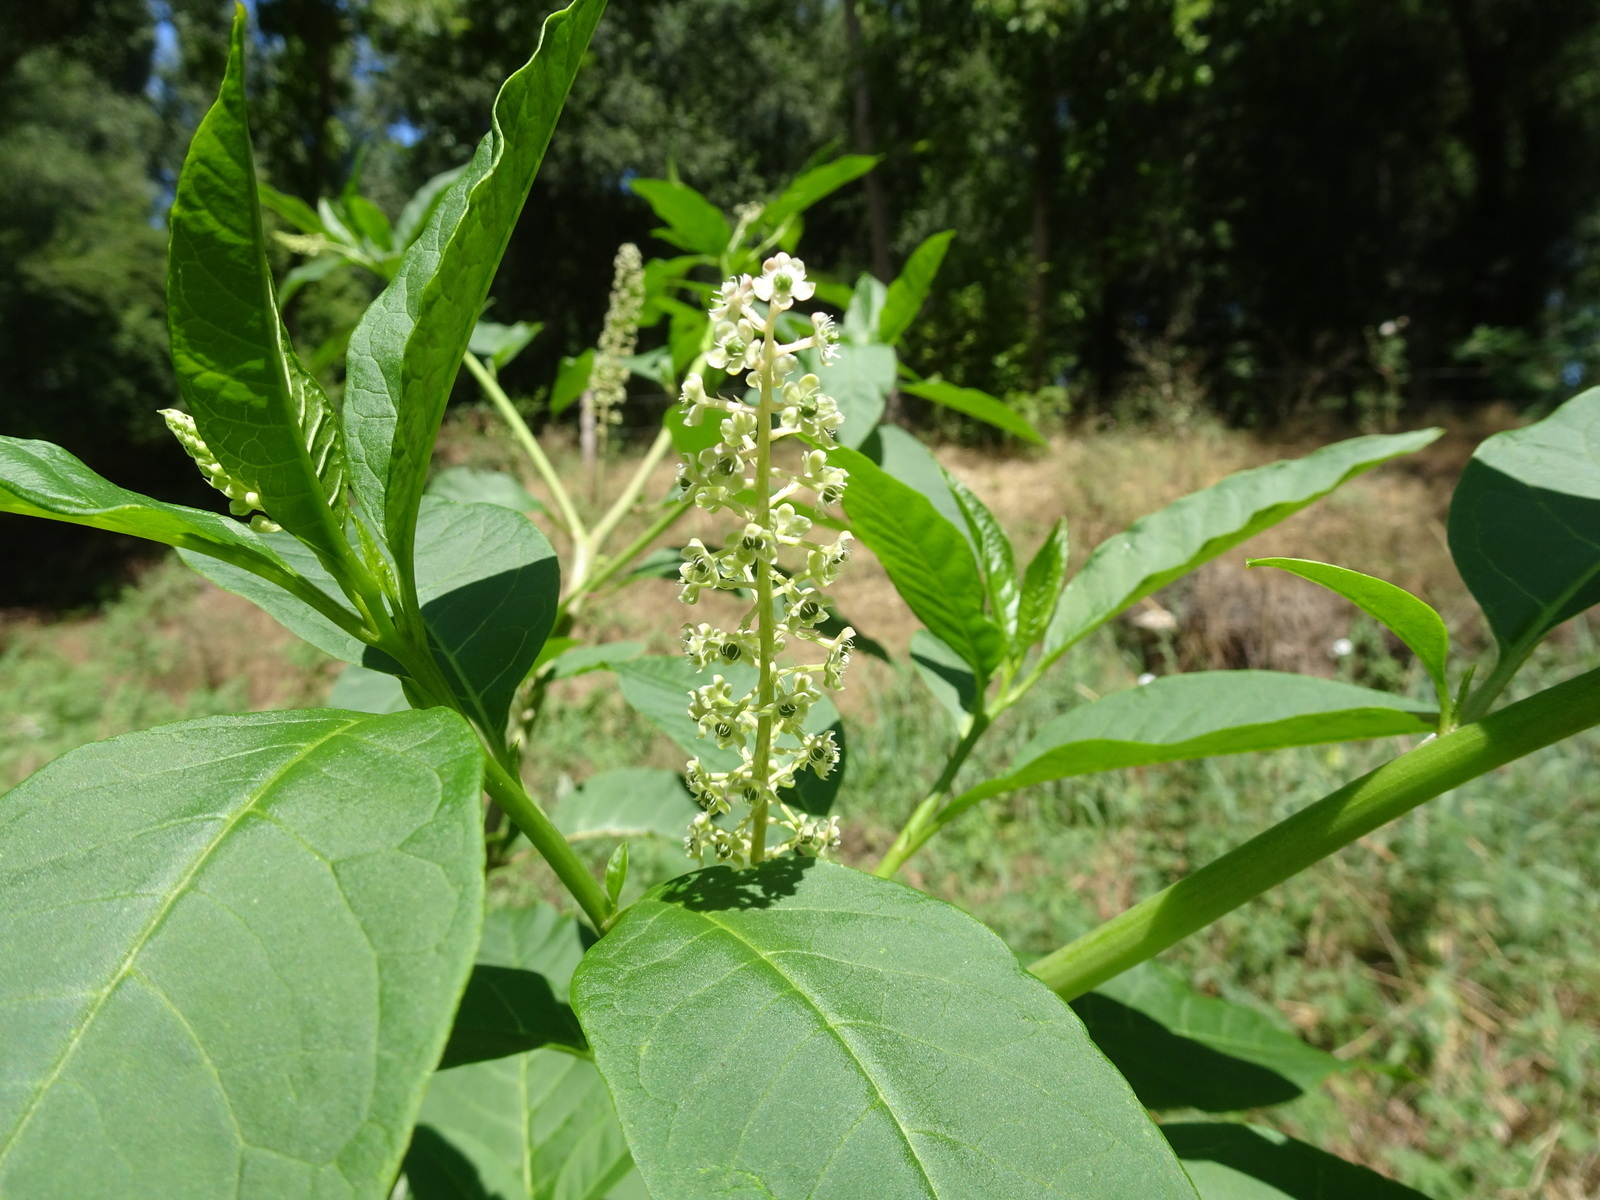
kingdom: Plantae
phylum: Tracheophyta
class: Magnoliopsida
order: Caryophyllales
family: Phytolaccaceae
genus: Phytolacca
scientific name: Phytolacca americana
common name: American pokeweed
